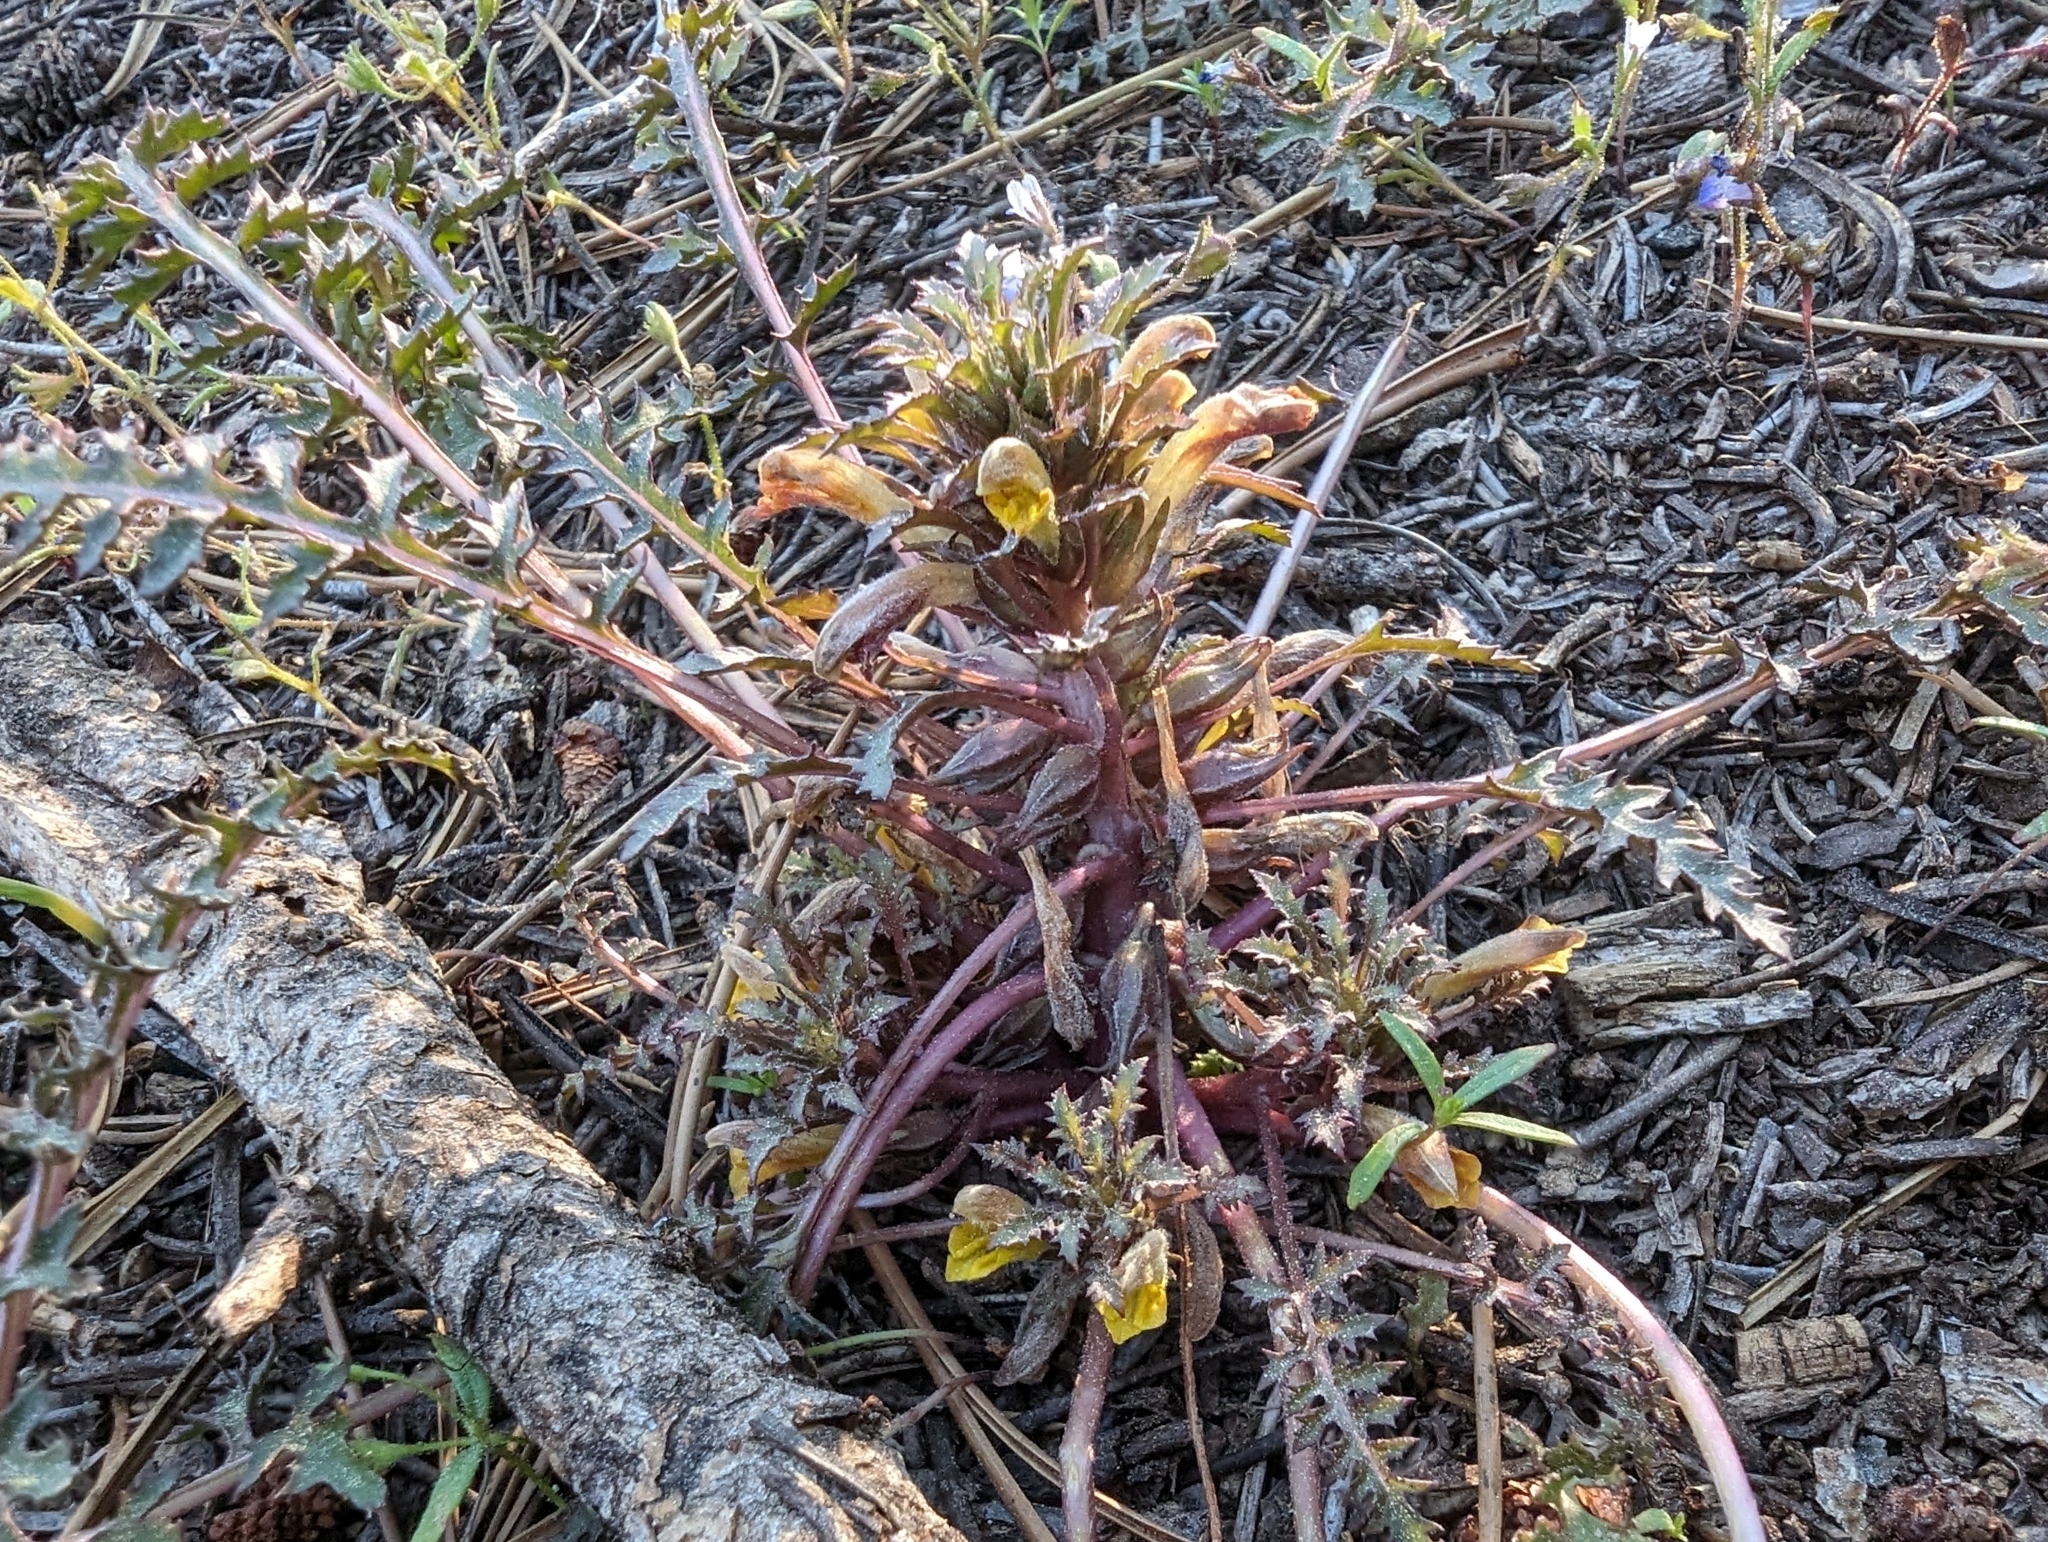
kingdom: Plantae
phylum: Tracheophyta
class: Magnoliopsida
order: Lamiales
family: Orobanchaceae
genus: Pedicularis
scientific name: Pedicularis semibarbata
